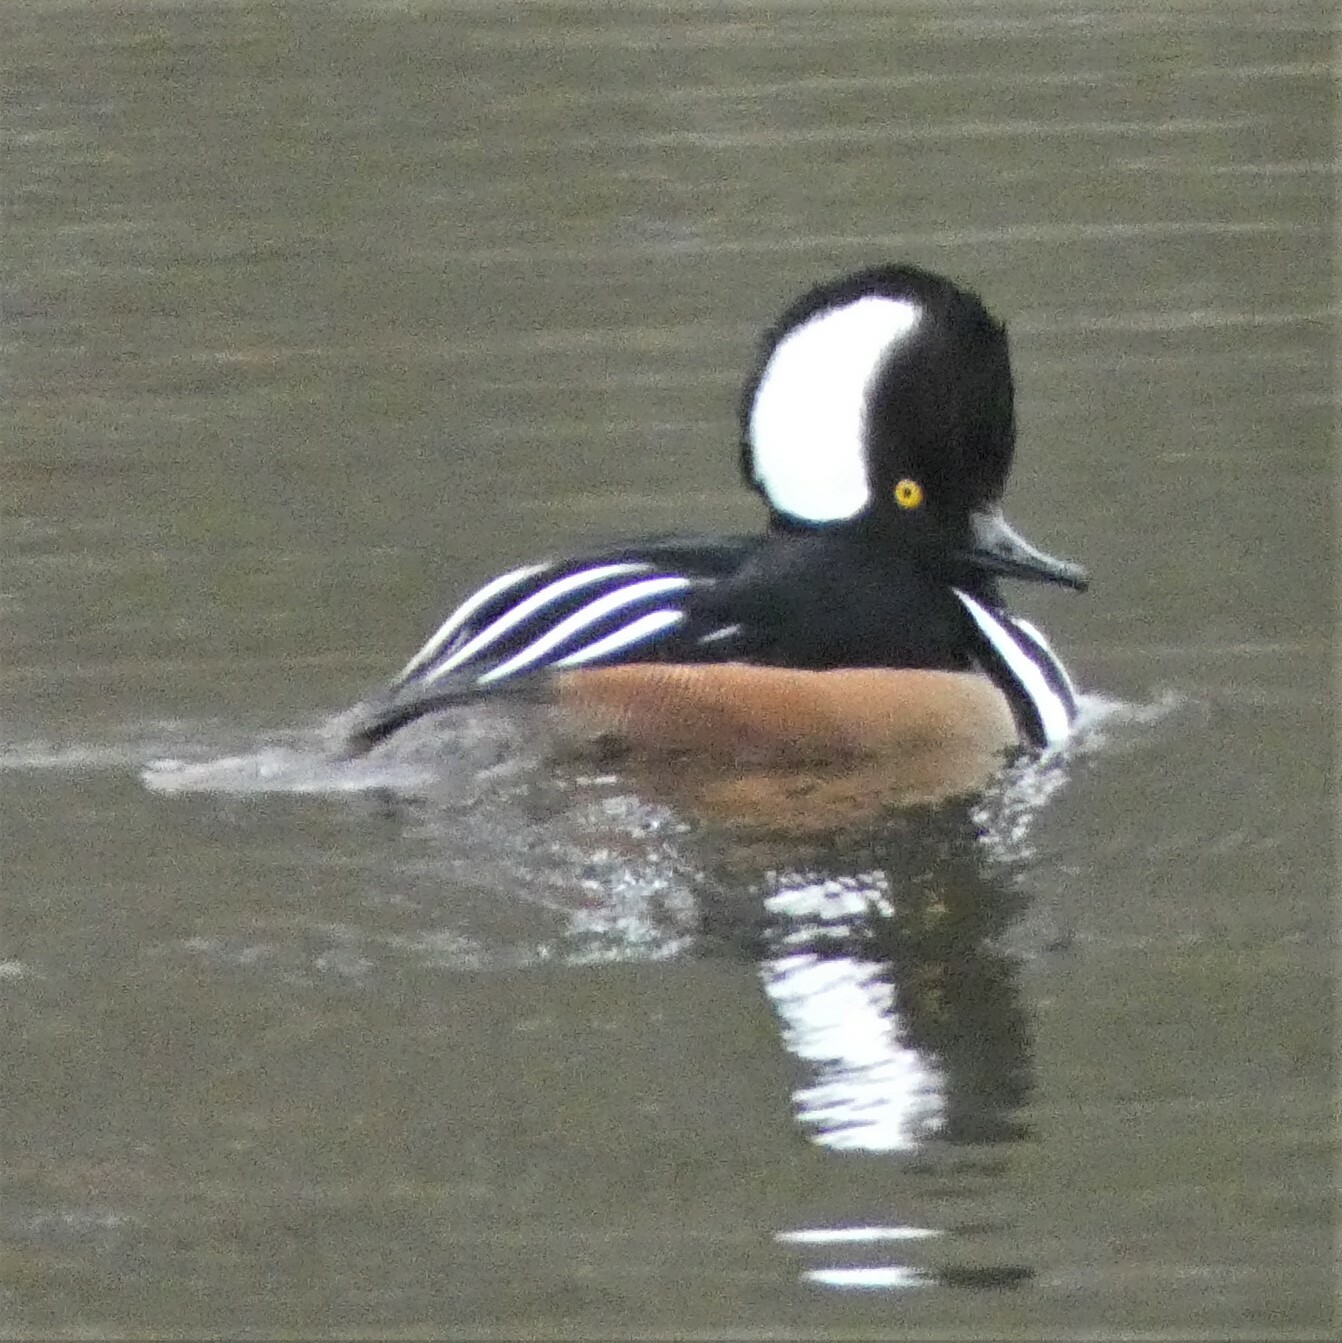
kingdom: Animalia
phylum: Chordata
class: Aves
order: Anseriformes
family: Anatidae
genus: Lophodytes
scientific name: Lophodytes cucullatus
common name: Hooded merganser
